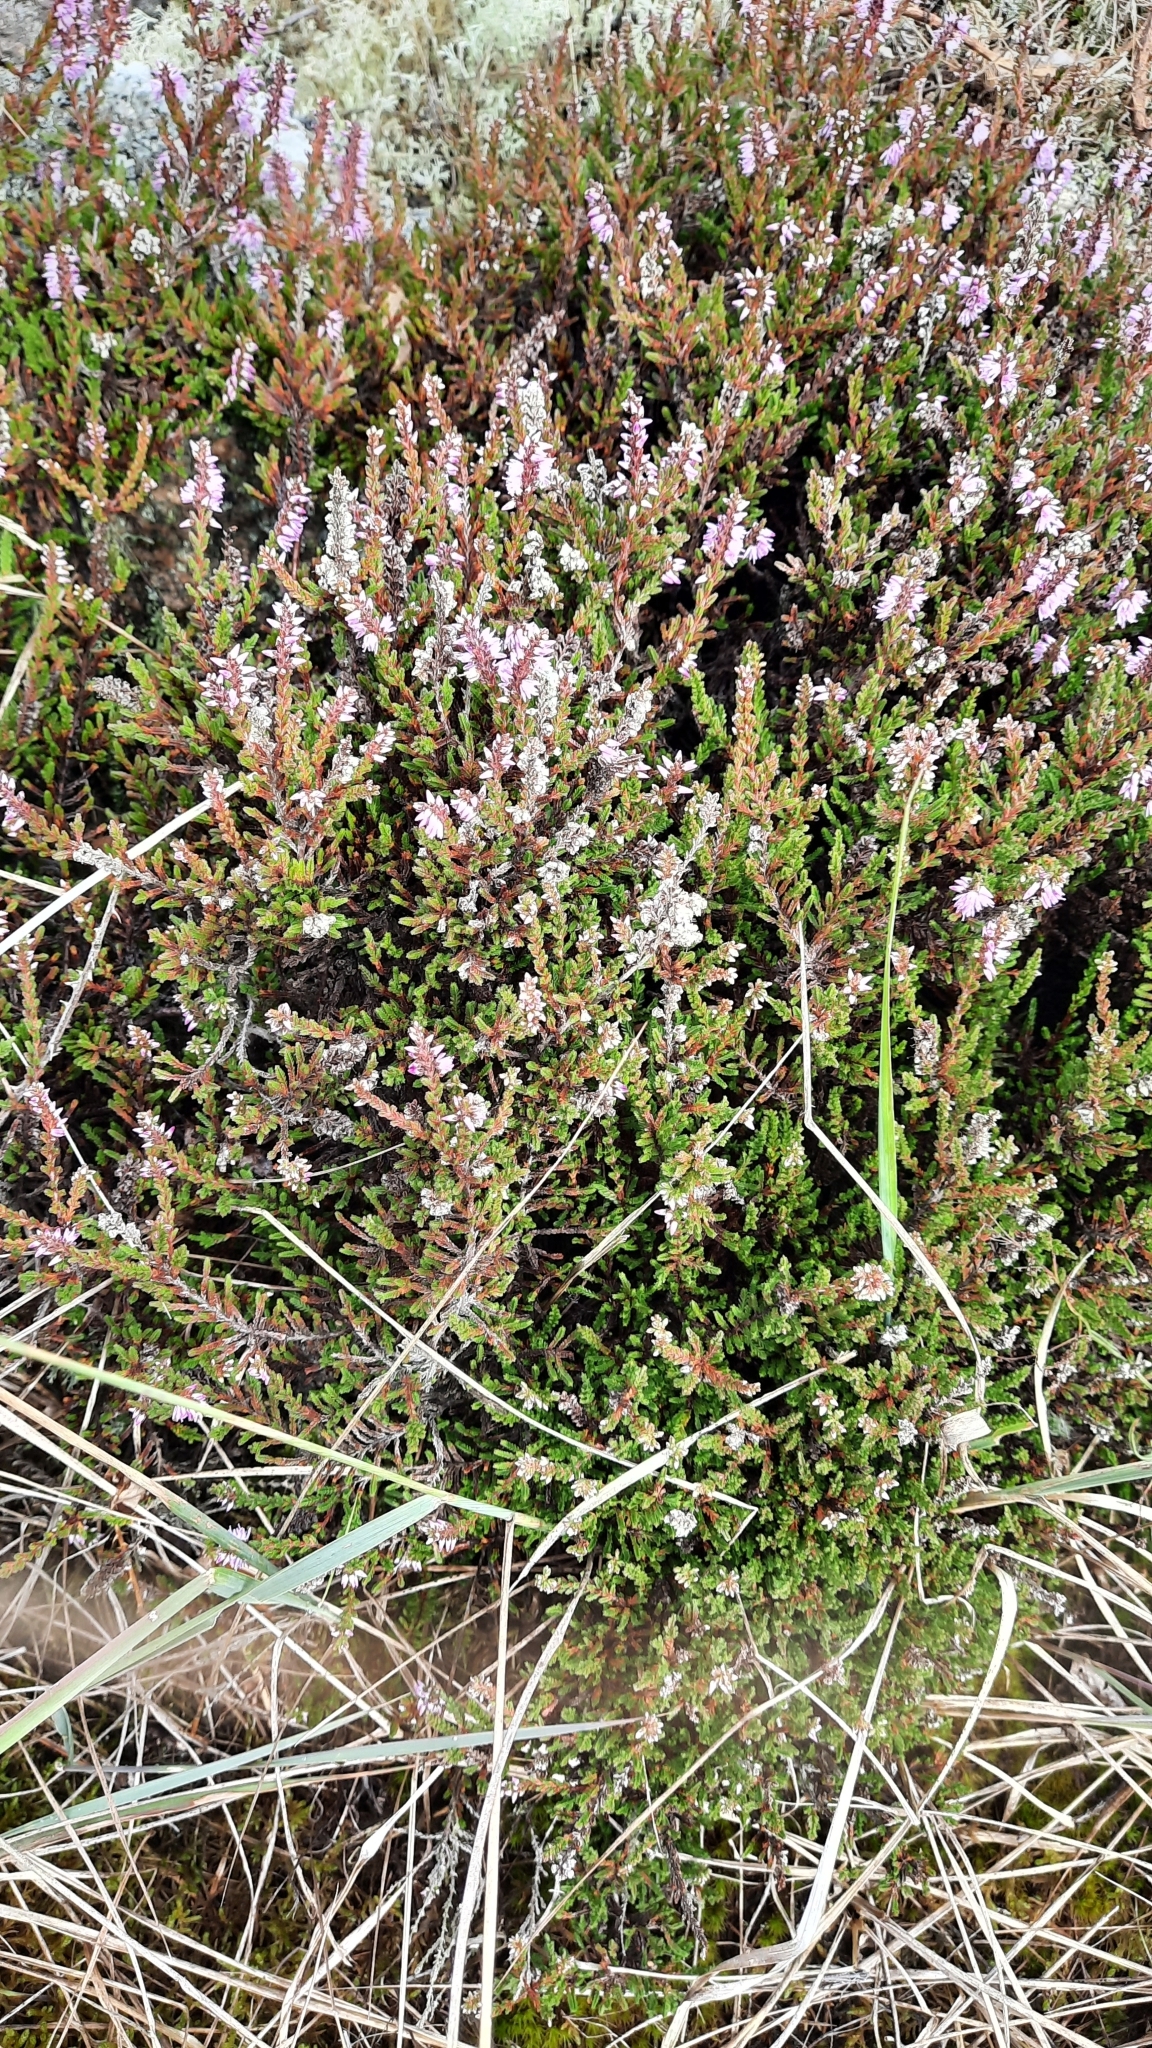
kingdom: Plantae
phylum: Tracheophyta
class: Magnoliopsida
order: Ericales
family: Ericaceae
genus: Calluna
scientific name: Calluna vulgaris
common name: Heather
